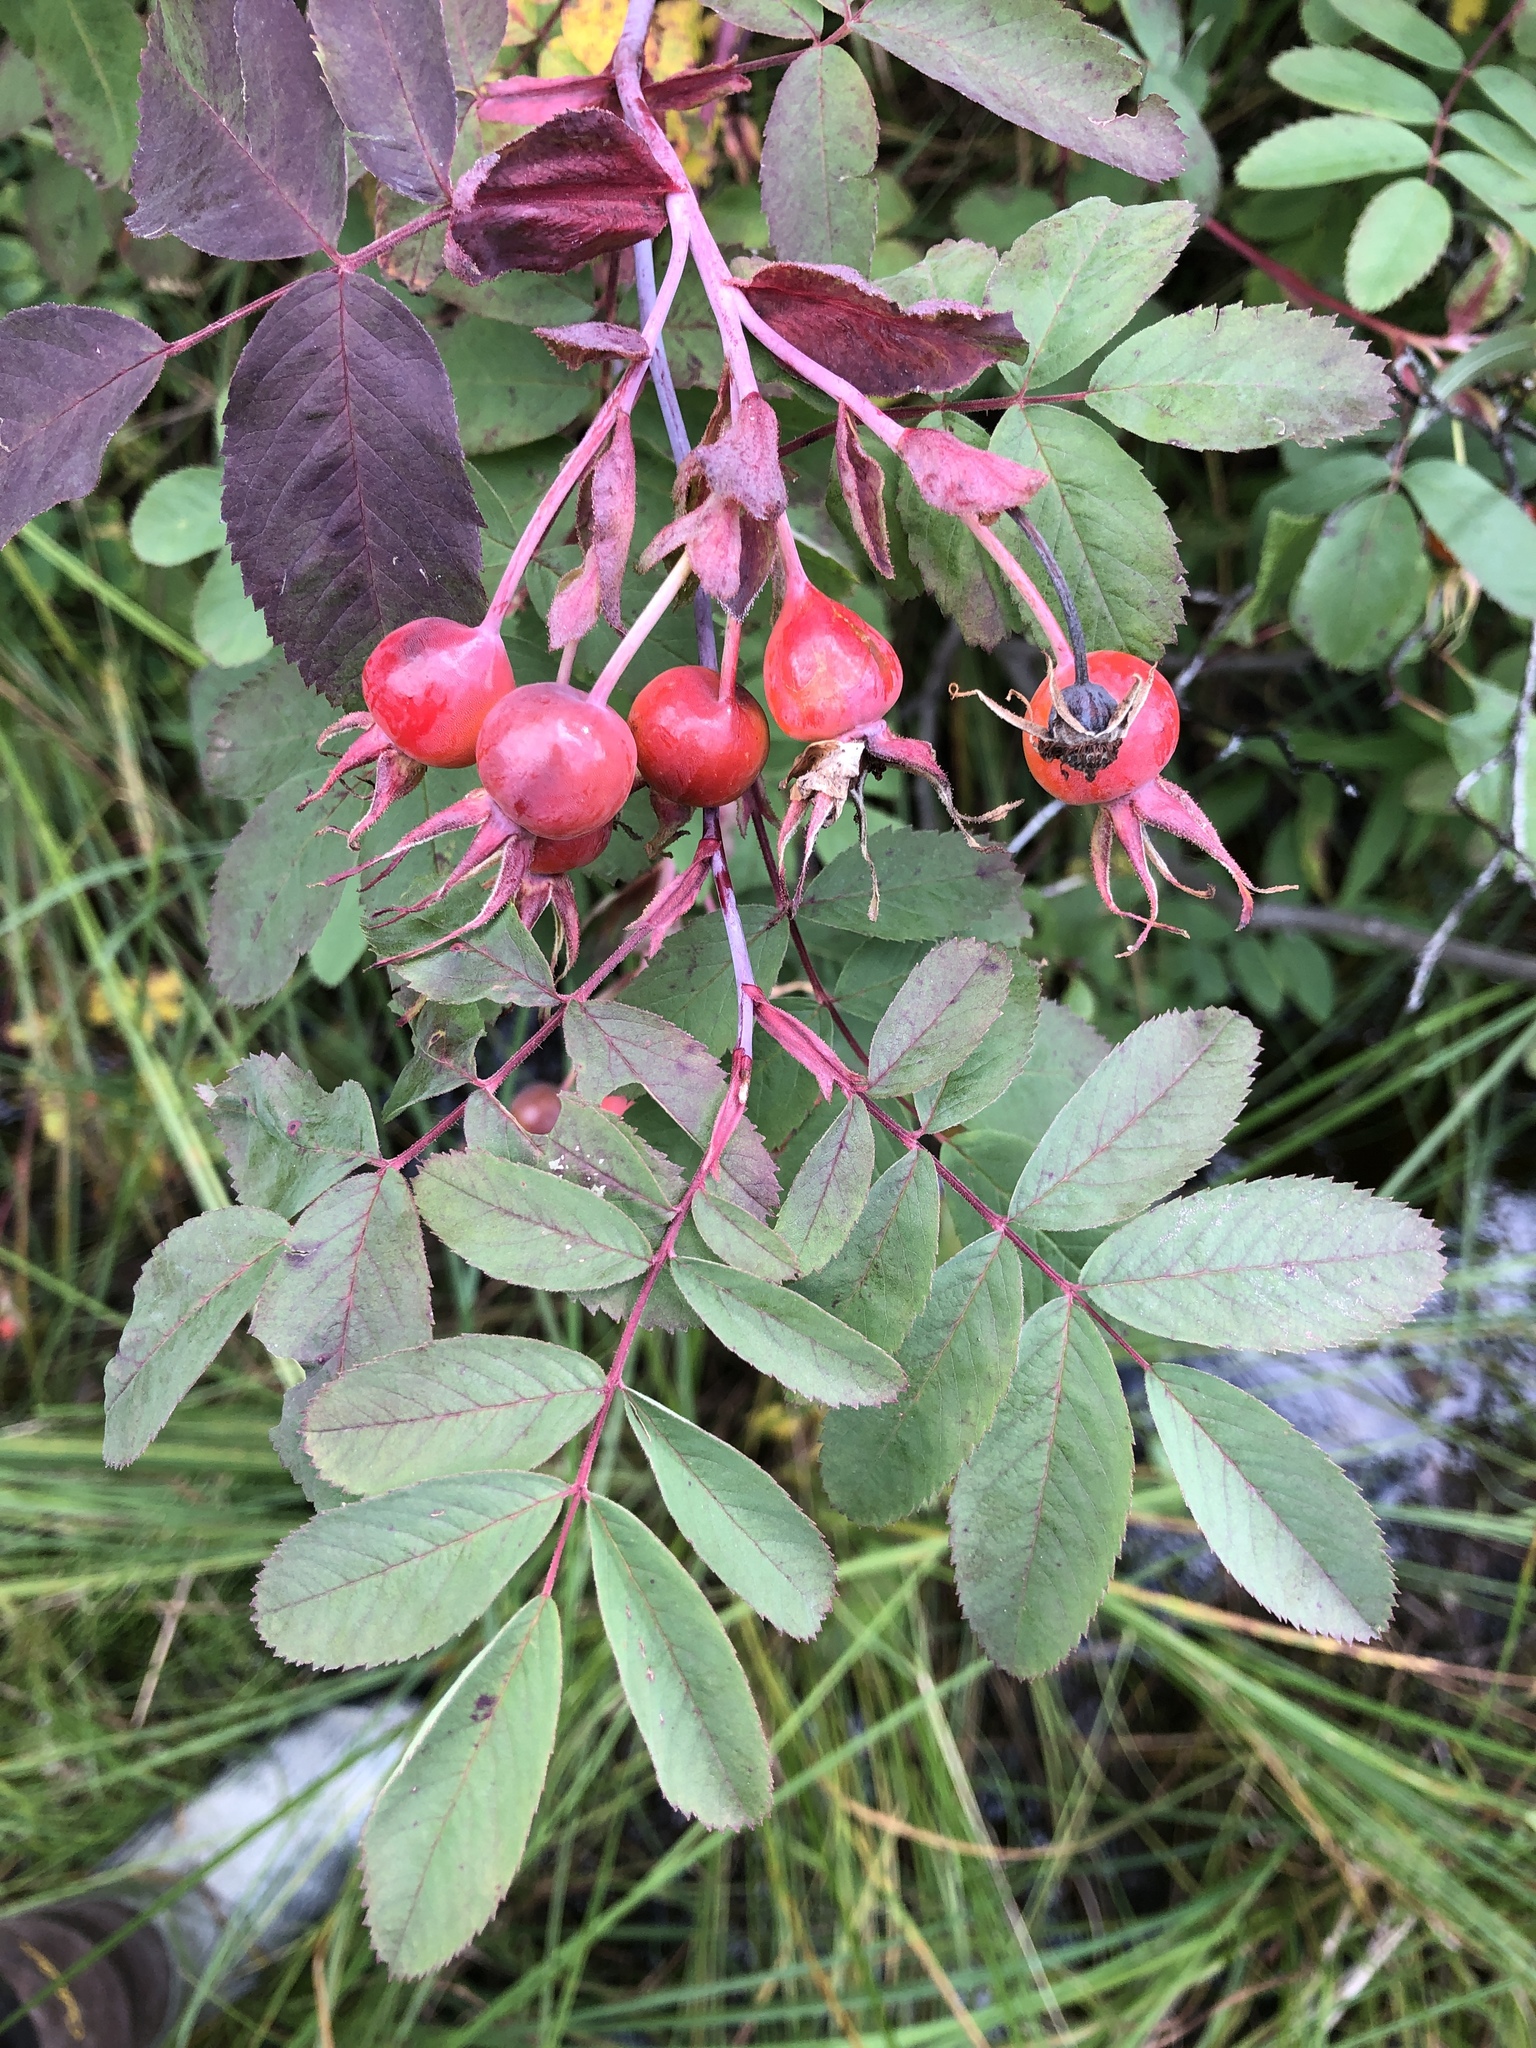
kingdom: Plantae
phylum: Tracheophyta
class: Magnoliopsida
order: Rosales
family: Rosaceae
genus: Rosa
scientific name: Rosa acicularis
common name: Prickly rose
